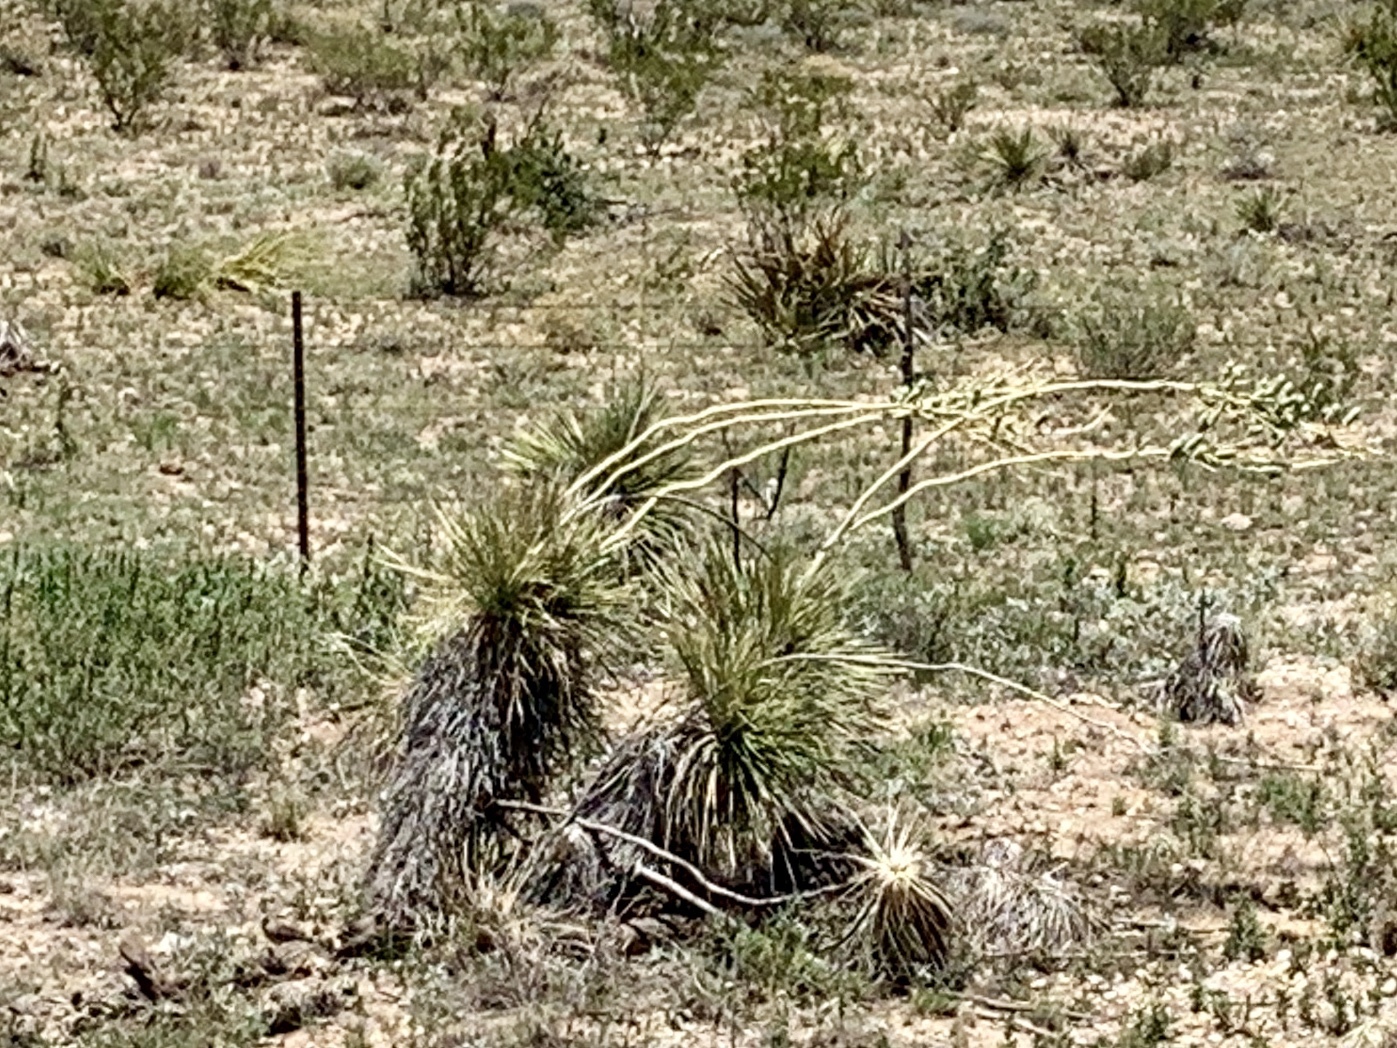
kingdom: Plantae
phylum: Tracheophyta
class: Liliopsida
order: Asparagales
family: Asparagaceae
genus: Yucca
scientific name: Yucca elata
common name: Palmella
